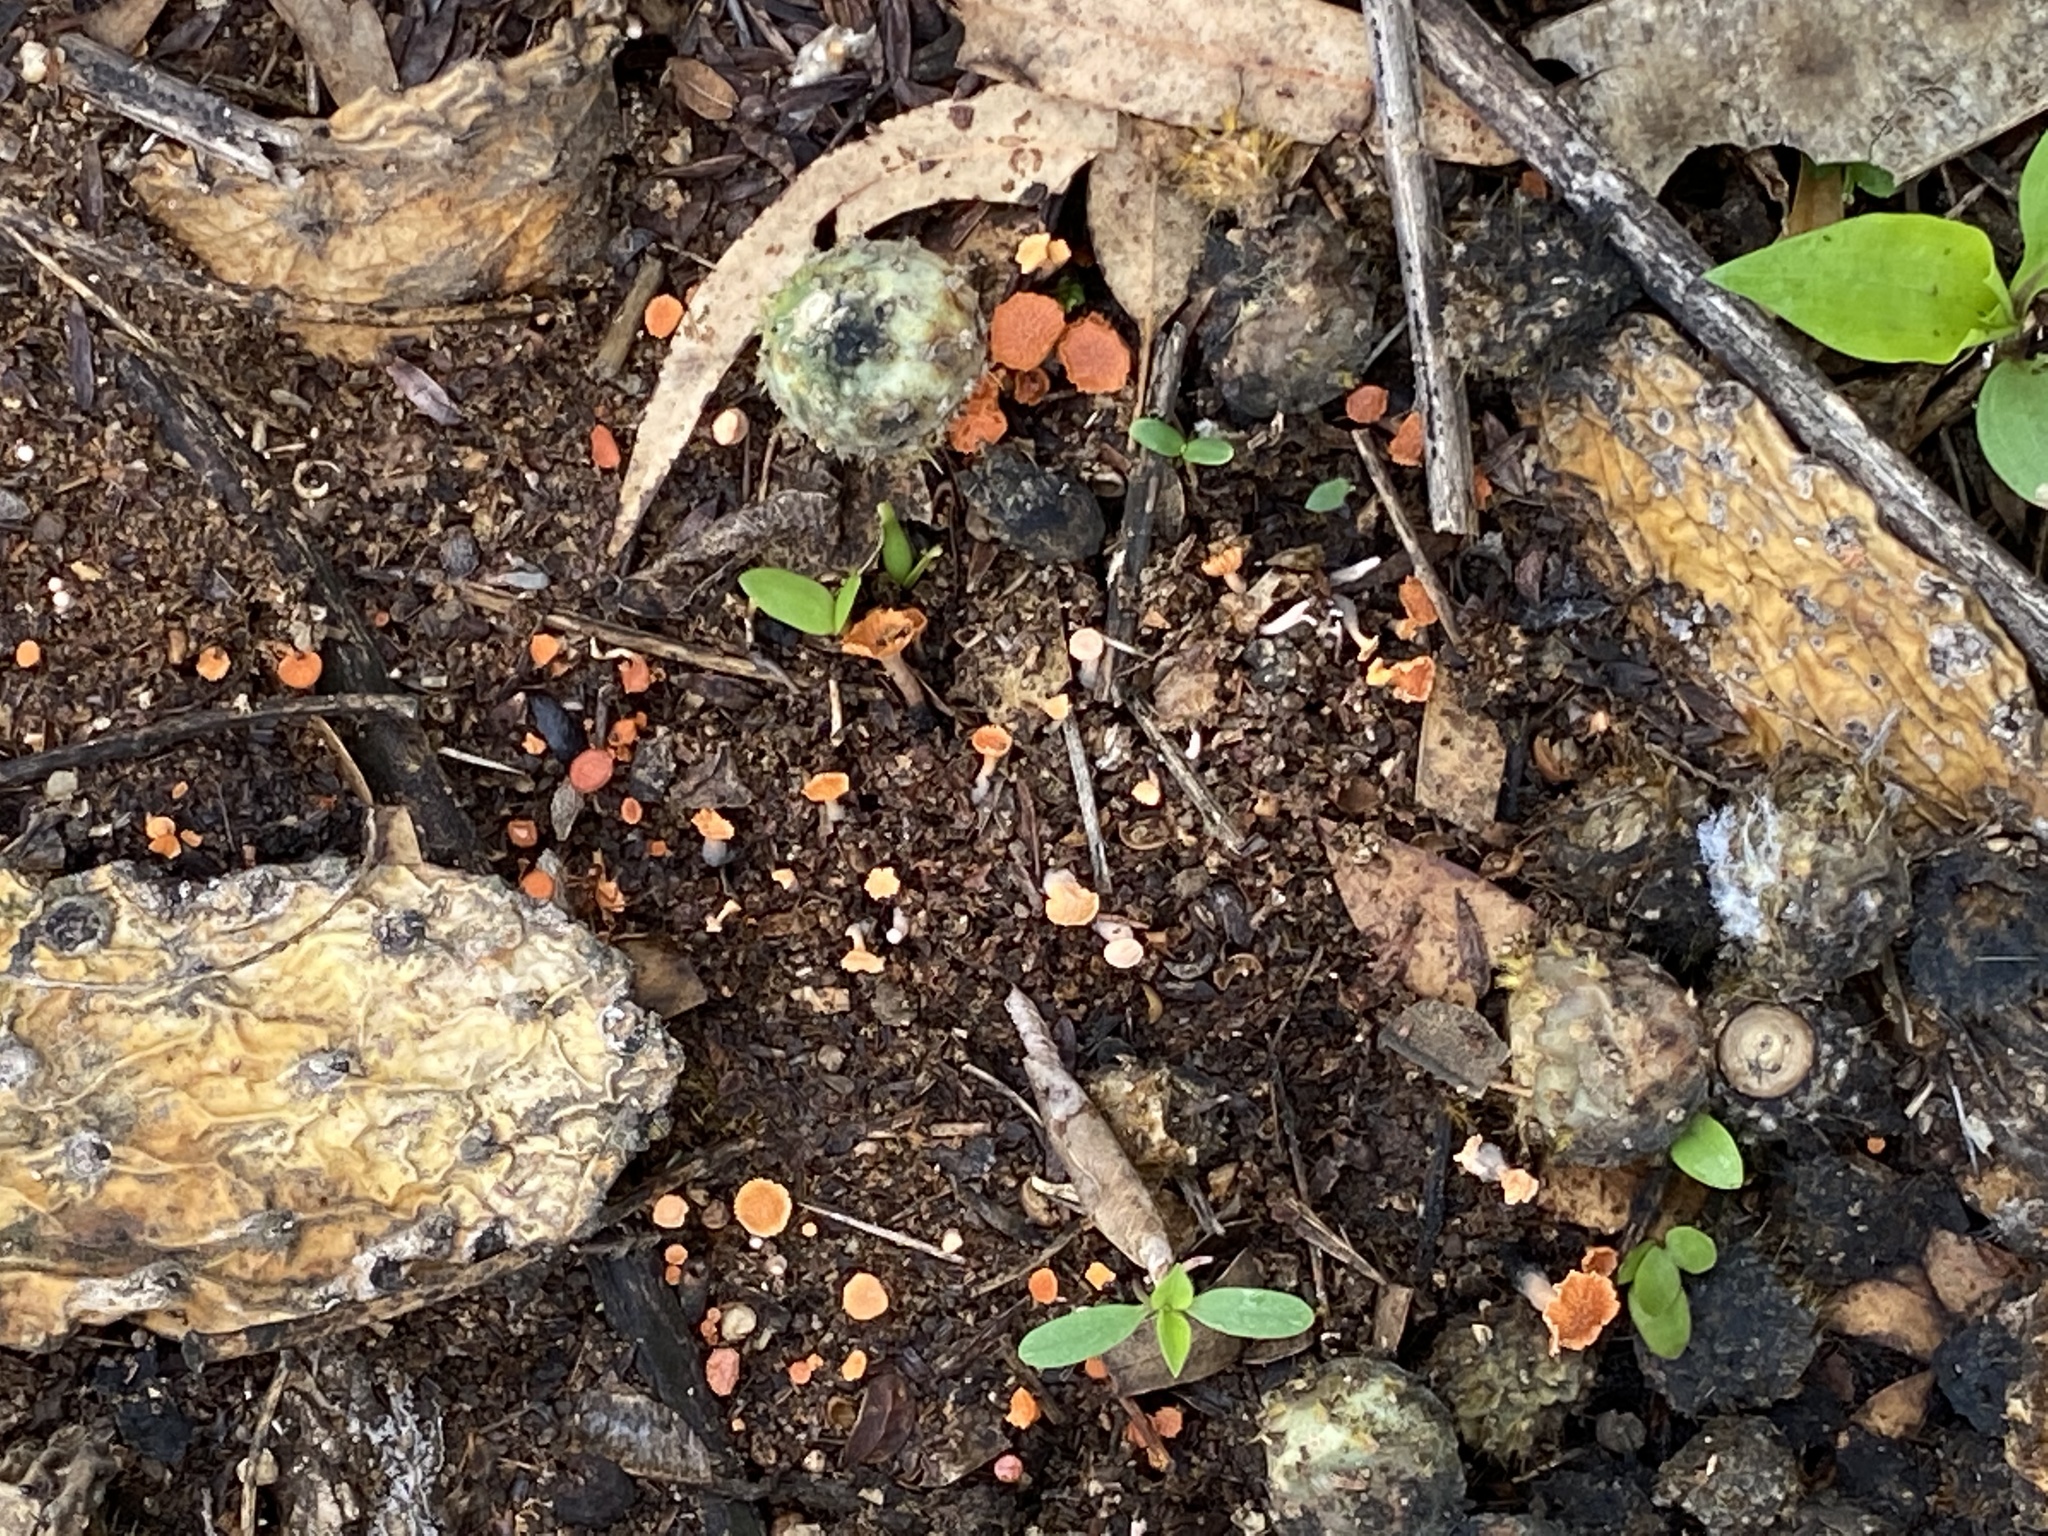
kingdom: Fungi
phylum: Ascomycota
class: Sordariomycetes
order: Xylariales
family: Xylariaceae
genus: Hypocreodendron
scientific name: Hypocreodendron sanguineum
